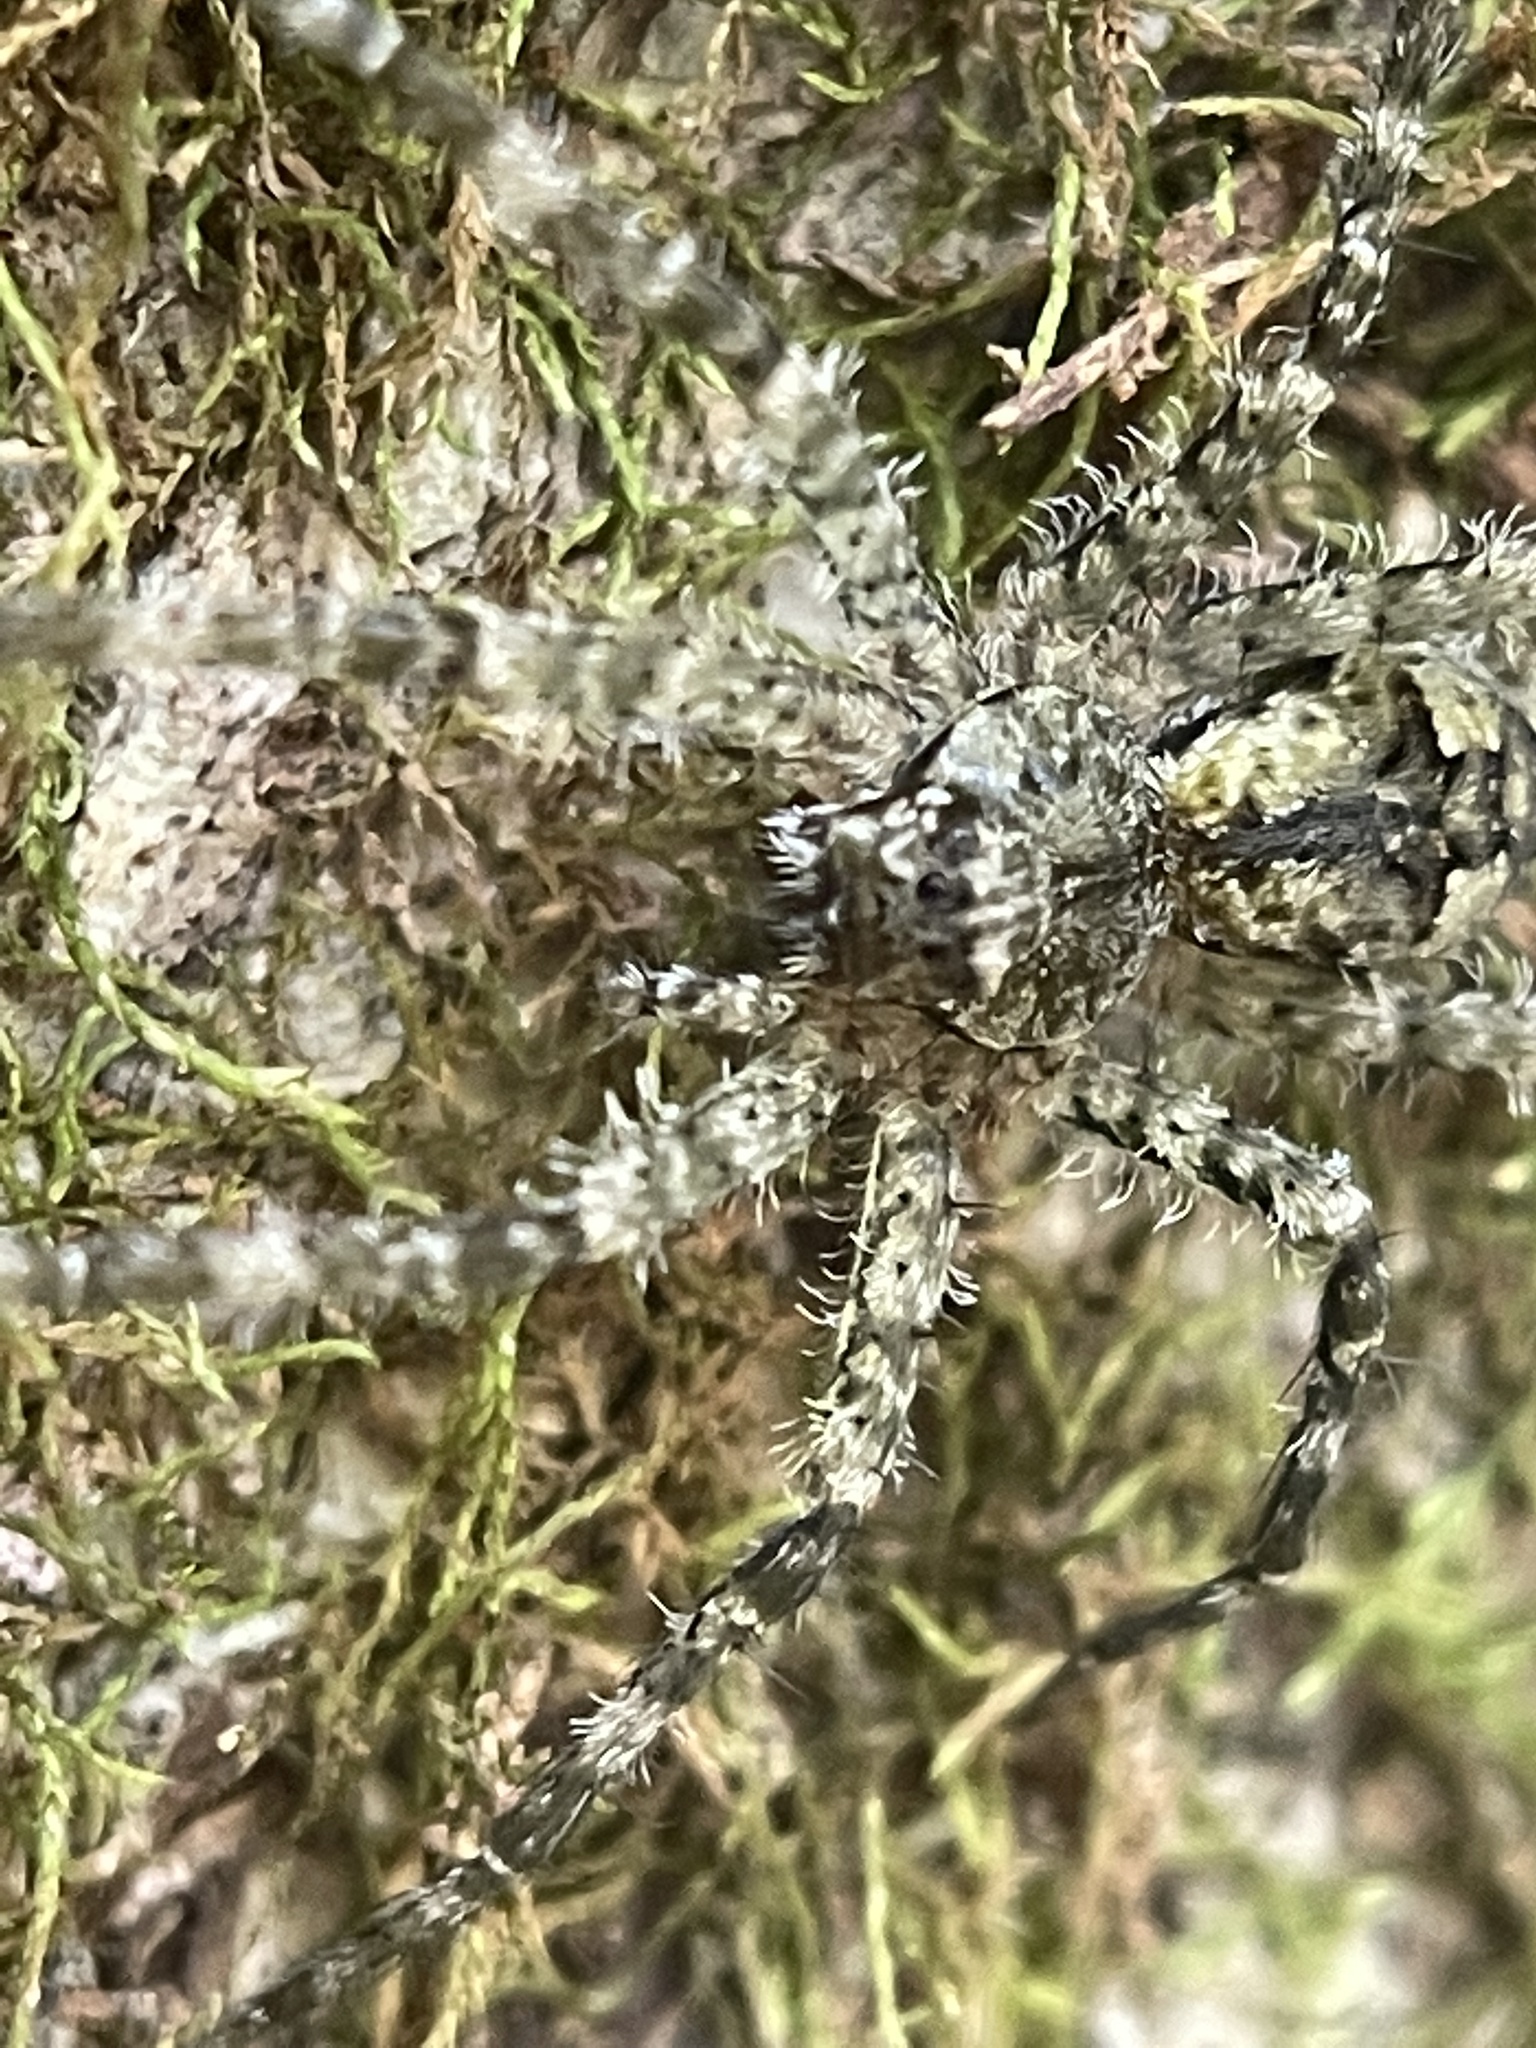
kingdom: Animalia
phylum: Arthropoda
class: Arachnida
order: Araneae
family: Pisauridae
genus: Dolomedes
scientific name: Dolomedes albineus
